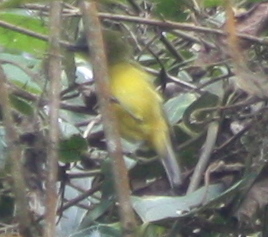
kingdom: Animalia
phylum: Chordata
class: Aves
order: Passeriformes
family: Thraupidae
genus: Thlypopsis
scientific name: Thlypopsis superciliaris
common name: Superciliaried hemispingus
